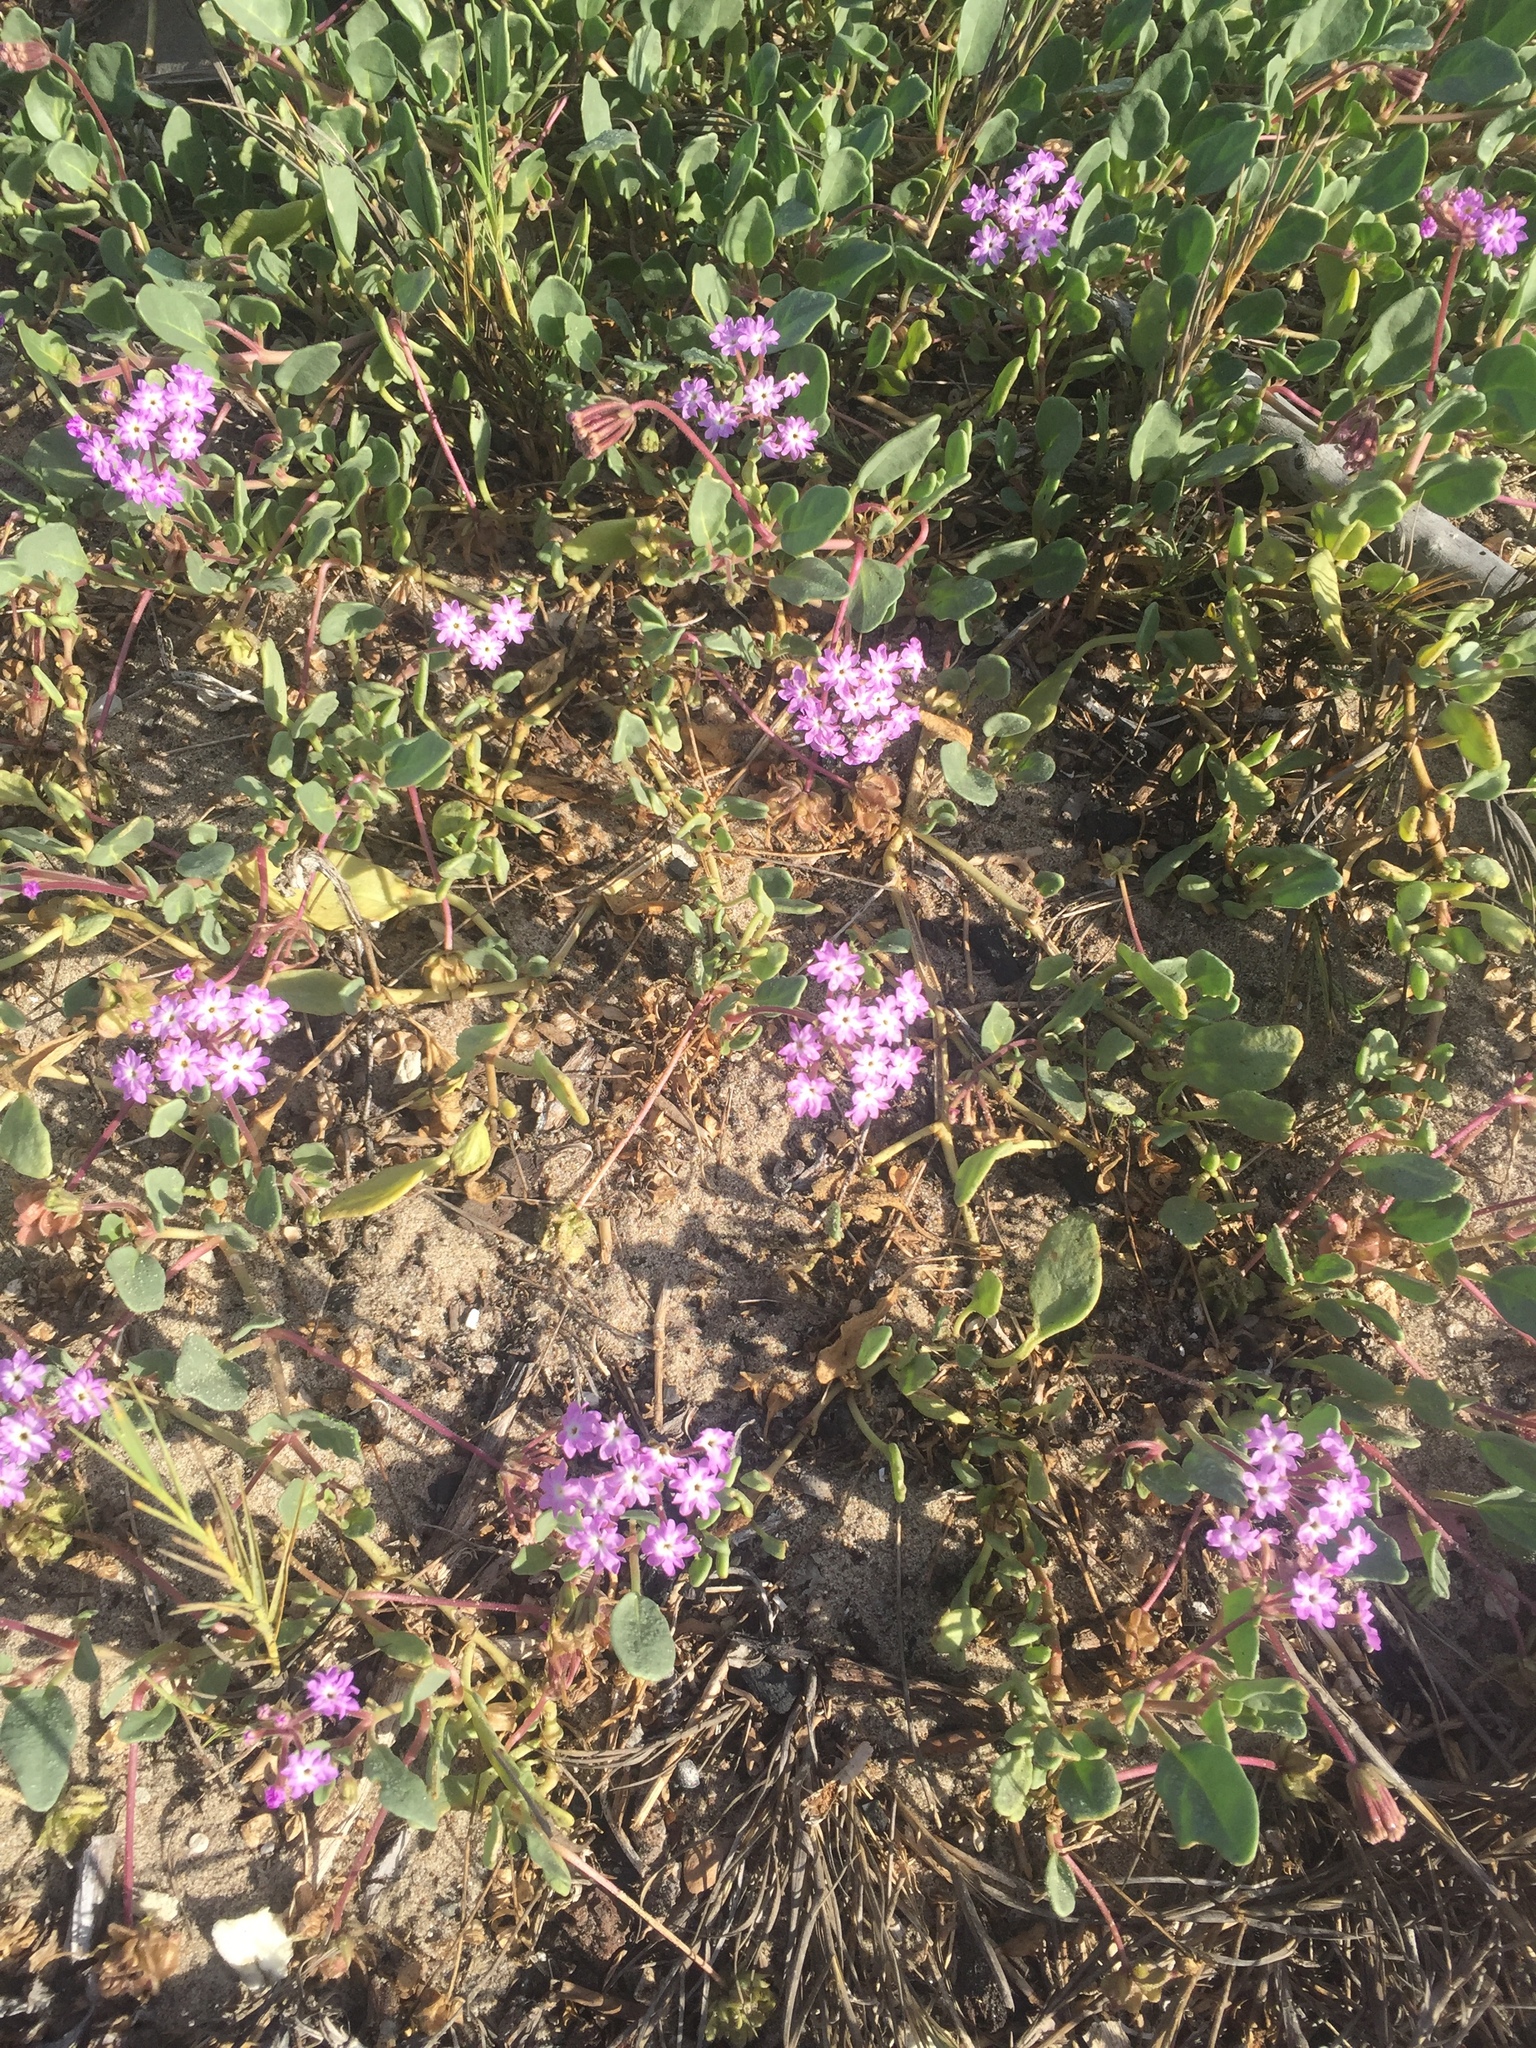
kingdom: Plantae
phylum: Tracheophyta
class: Magnoliopsida
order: Caryophyllales
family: Nyctaginaceae
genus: Abronia
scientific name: Abronia umbellata
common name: Sand-verbena
